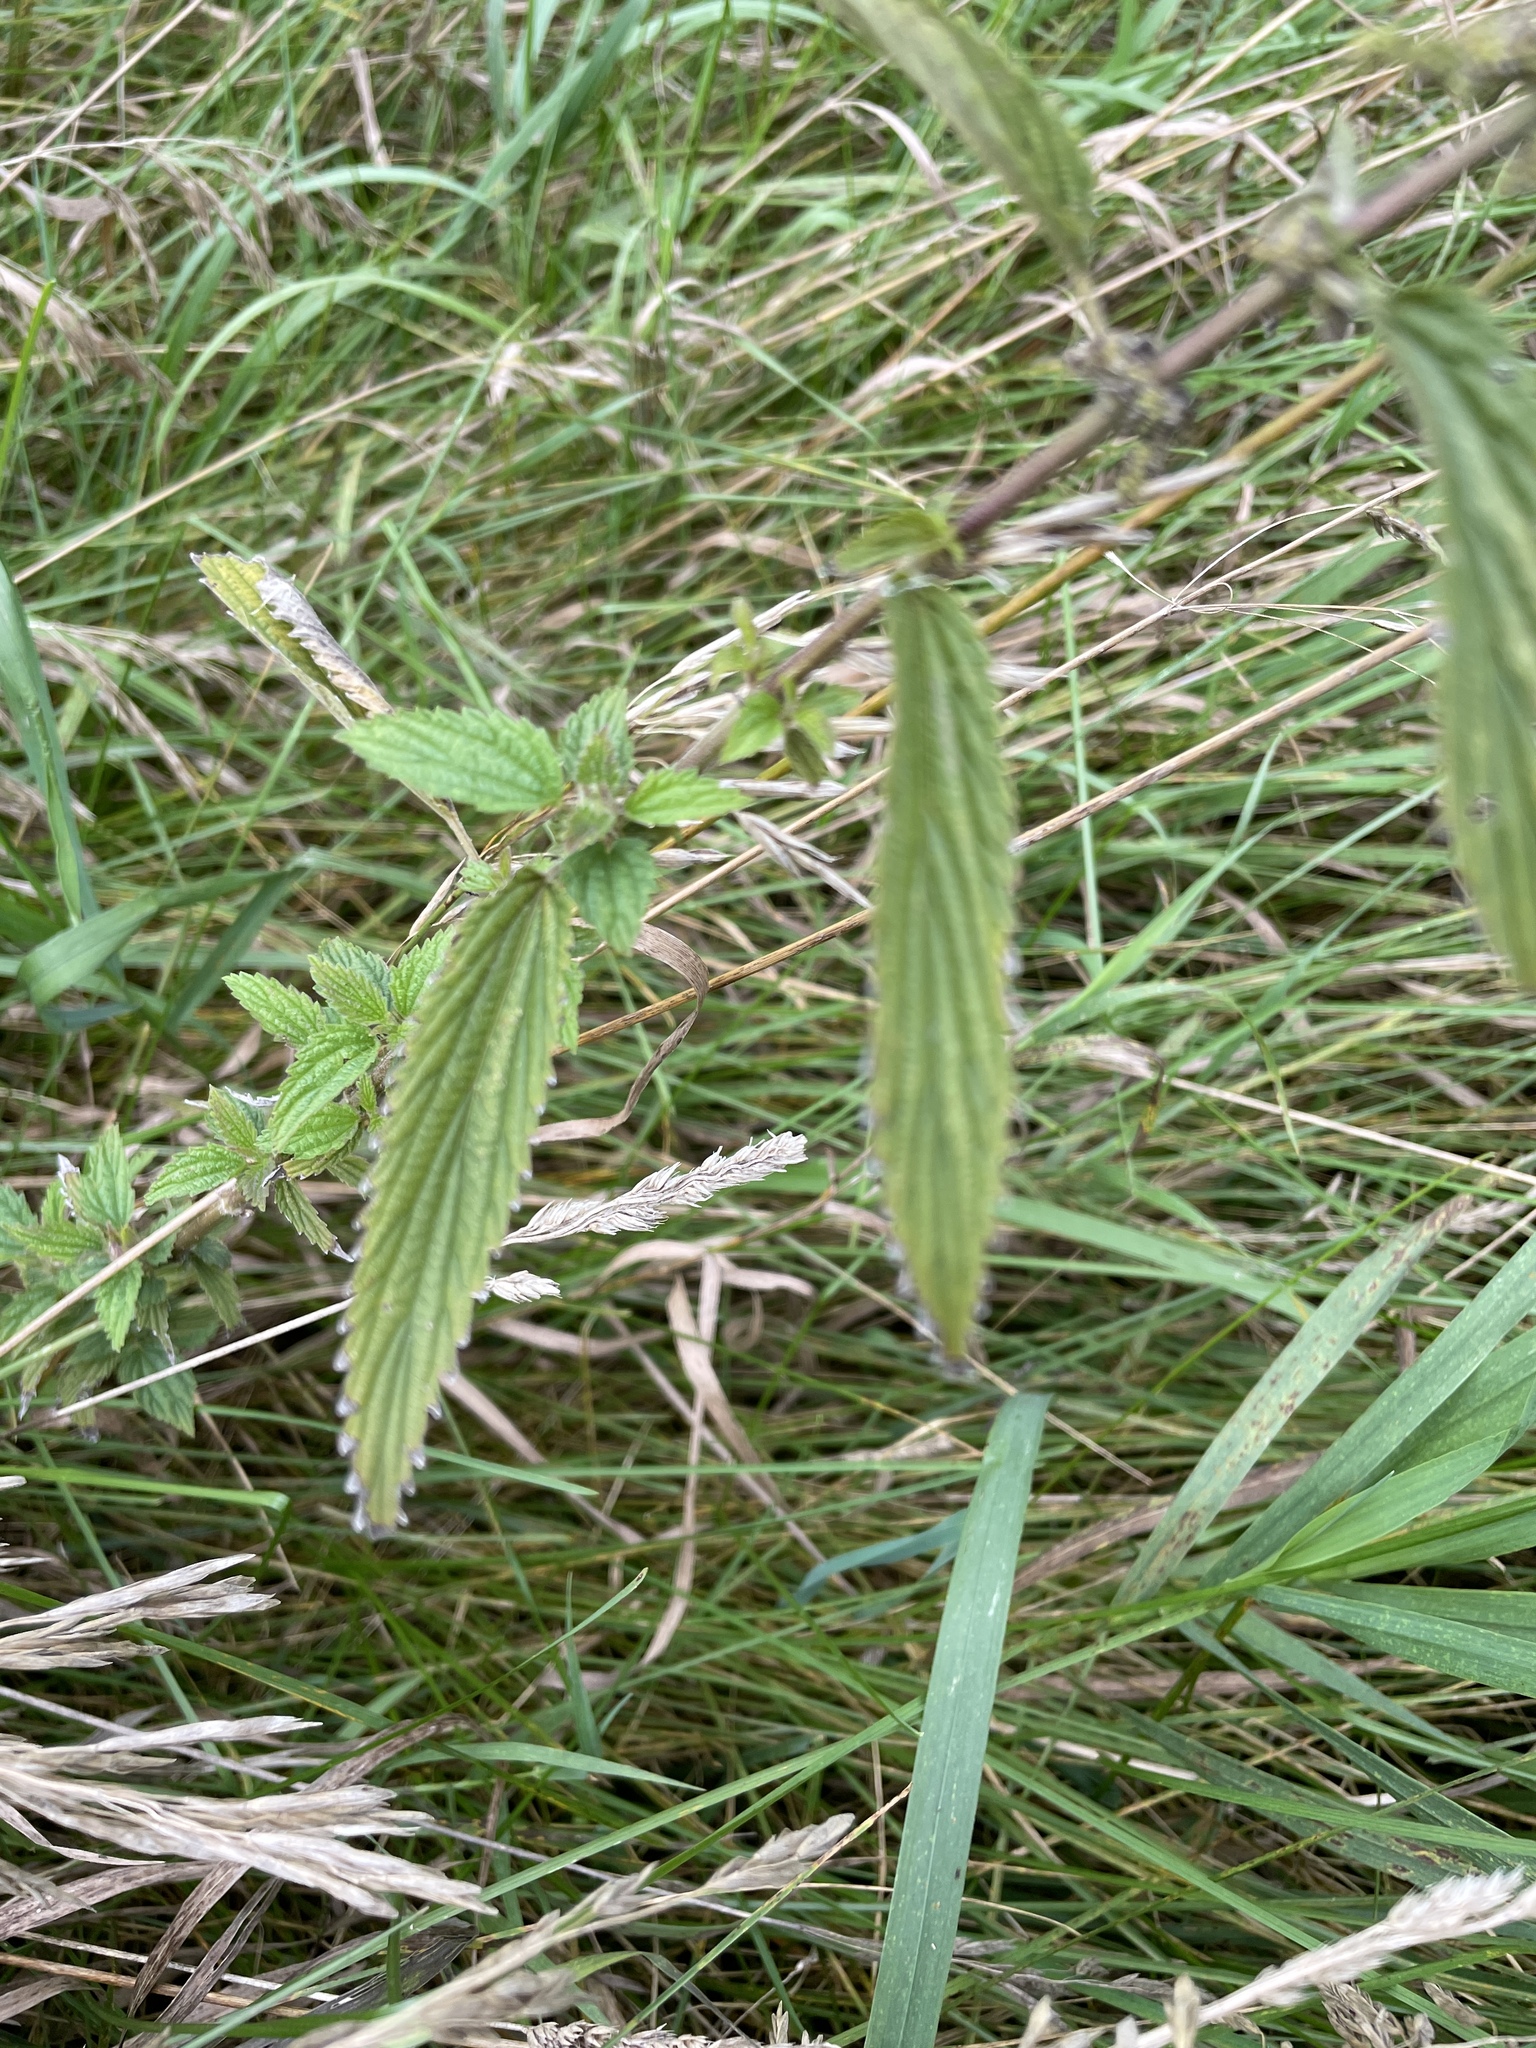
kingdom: Plantae
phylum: Tracheophyta
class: Magnoliopsida
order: Rosales
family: Urticaceae
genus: Urtica
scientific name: Urtica gracilis
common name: Slender stinging nettle
